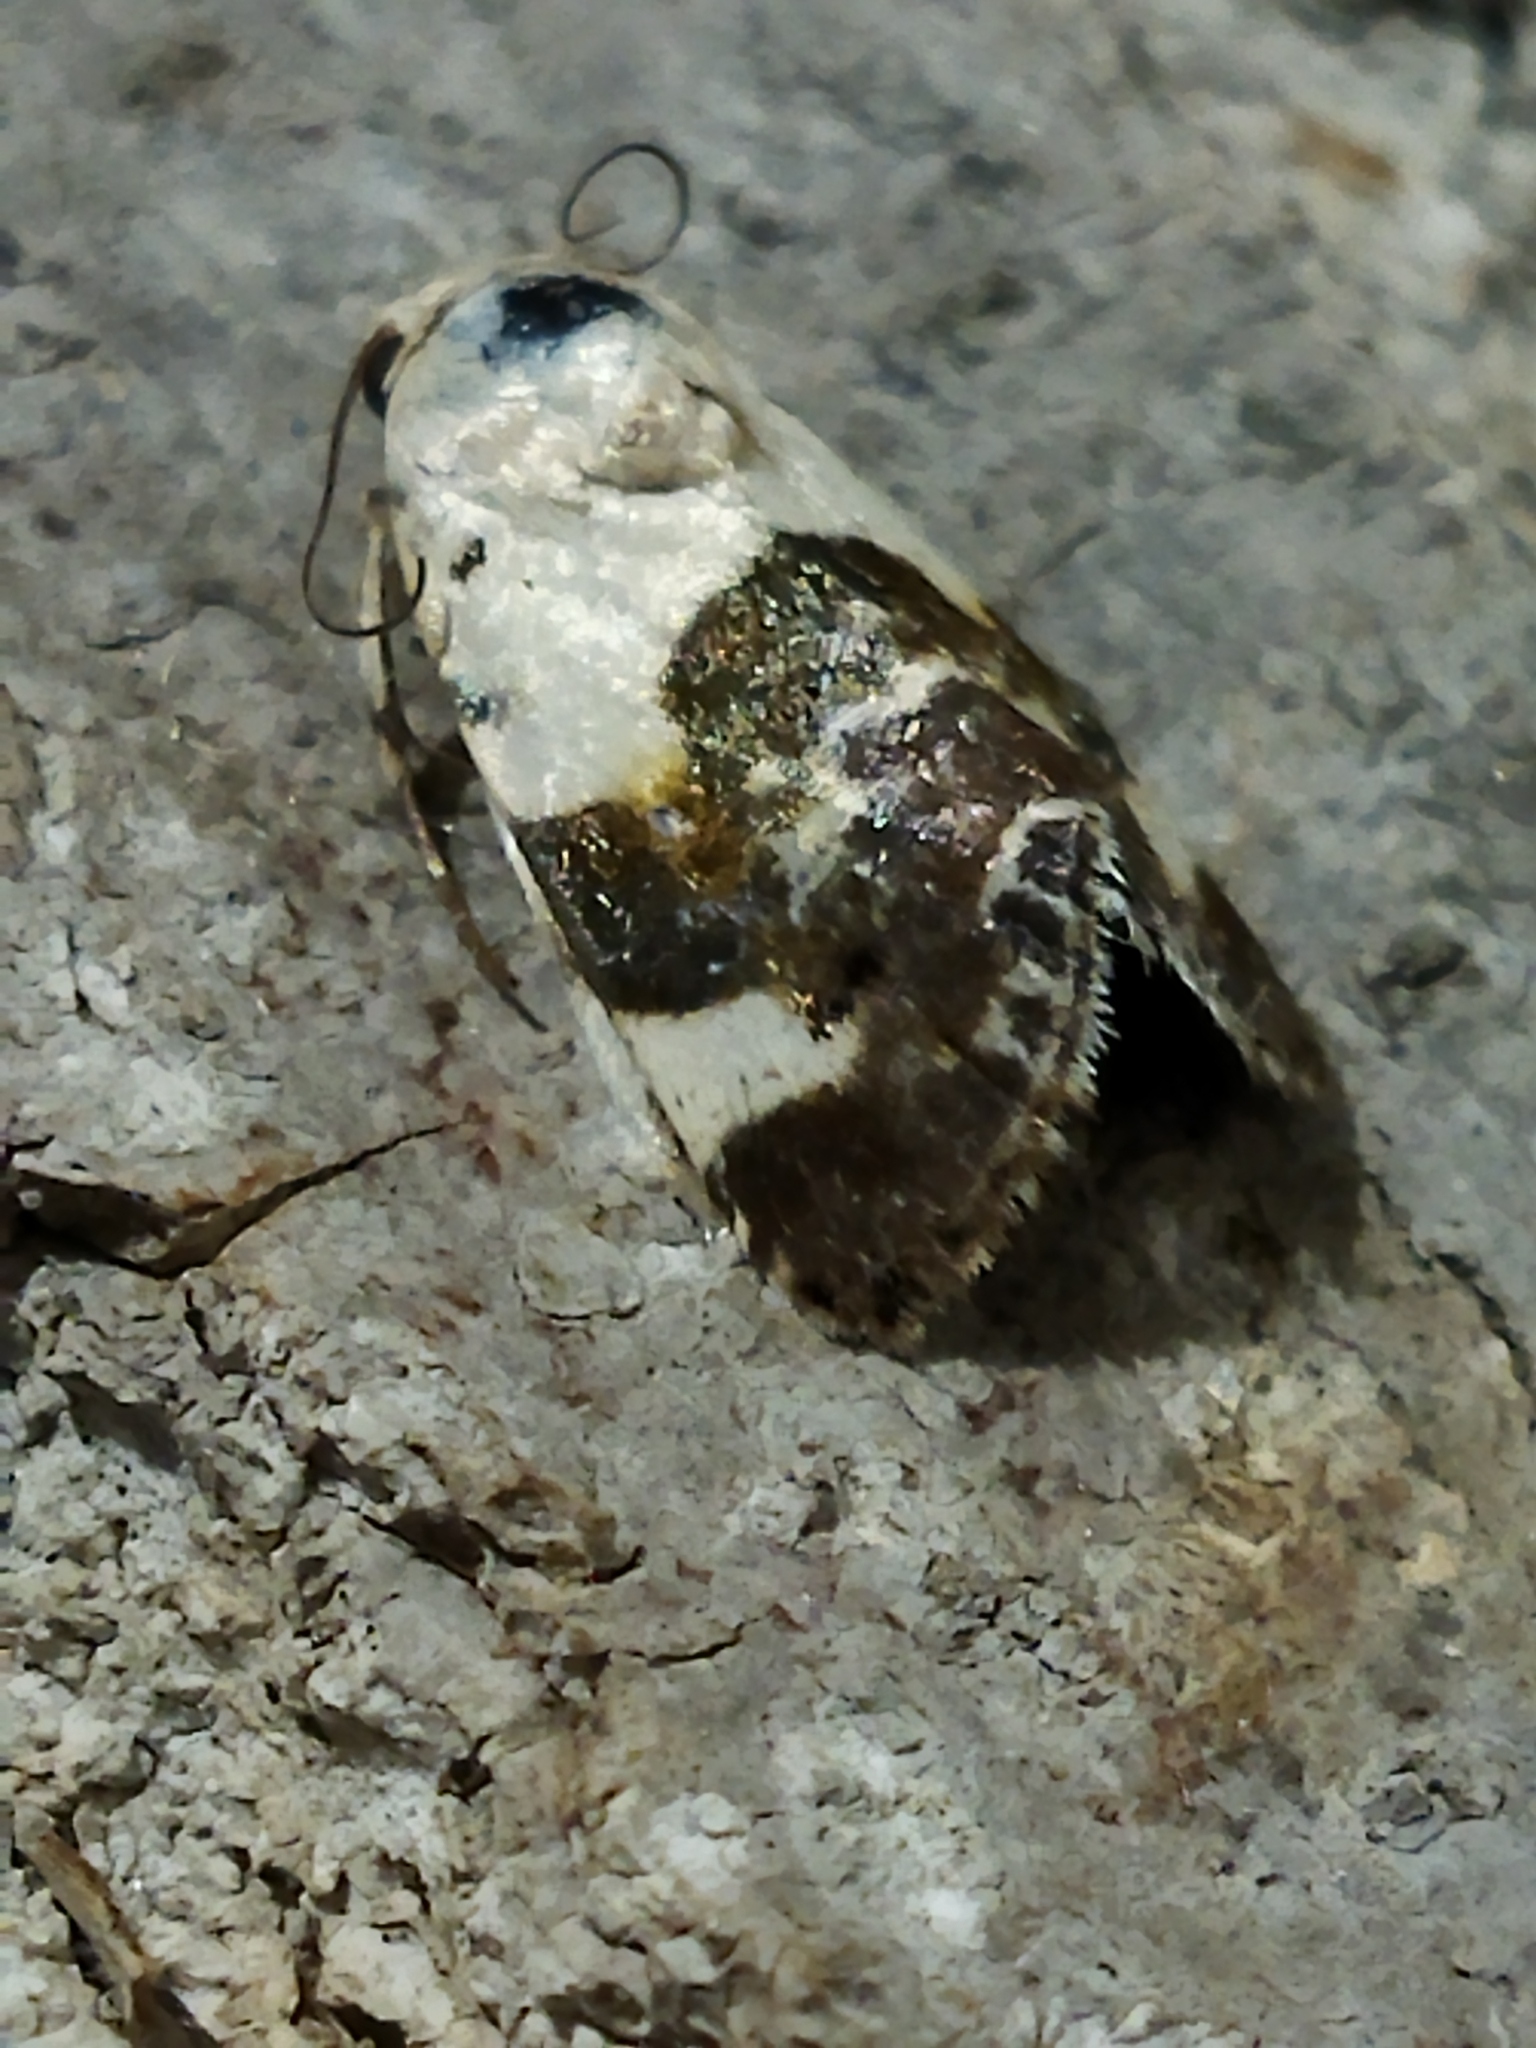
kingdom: Animalia
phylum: Arthropoda
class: Insecta
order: Lepidoptera
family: Noctuidae
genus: Acontia
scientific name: Acontia lucida
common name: Pale shoulder
